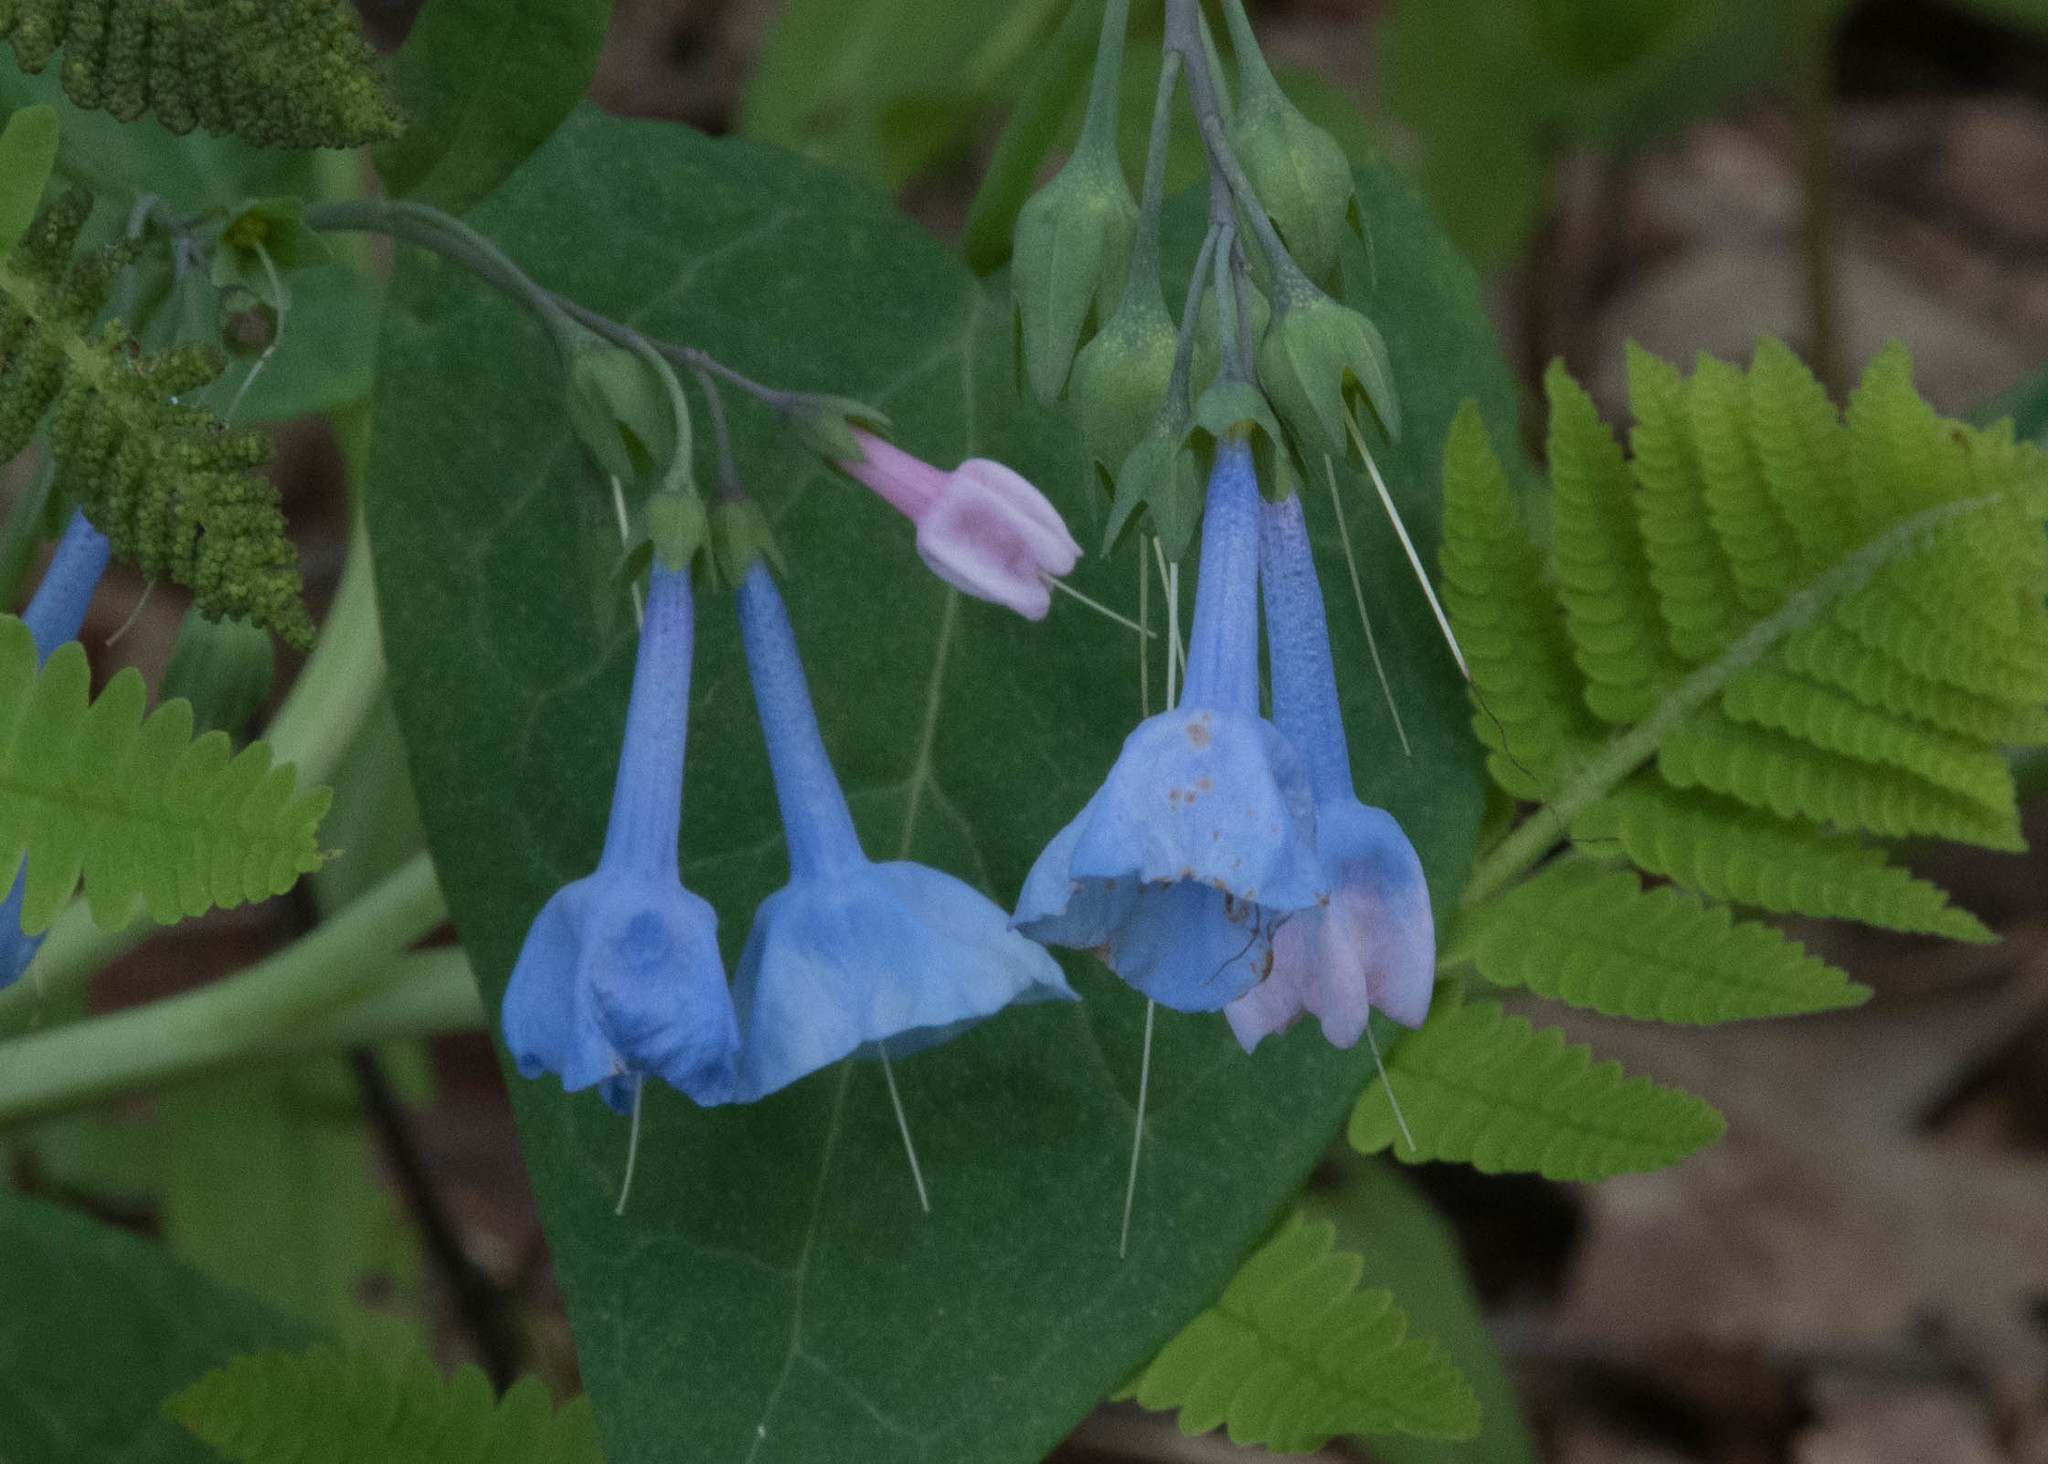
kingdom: Plantae
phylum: Tracheophyta
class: Magnoliopsida
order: Boraginales
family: Boraginaceae
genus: Mertensia
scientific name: Mertensia virginica
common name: Virginia bluebells
